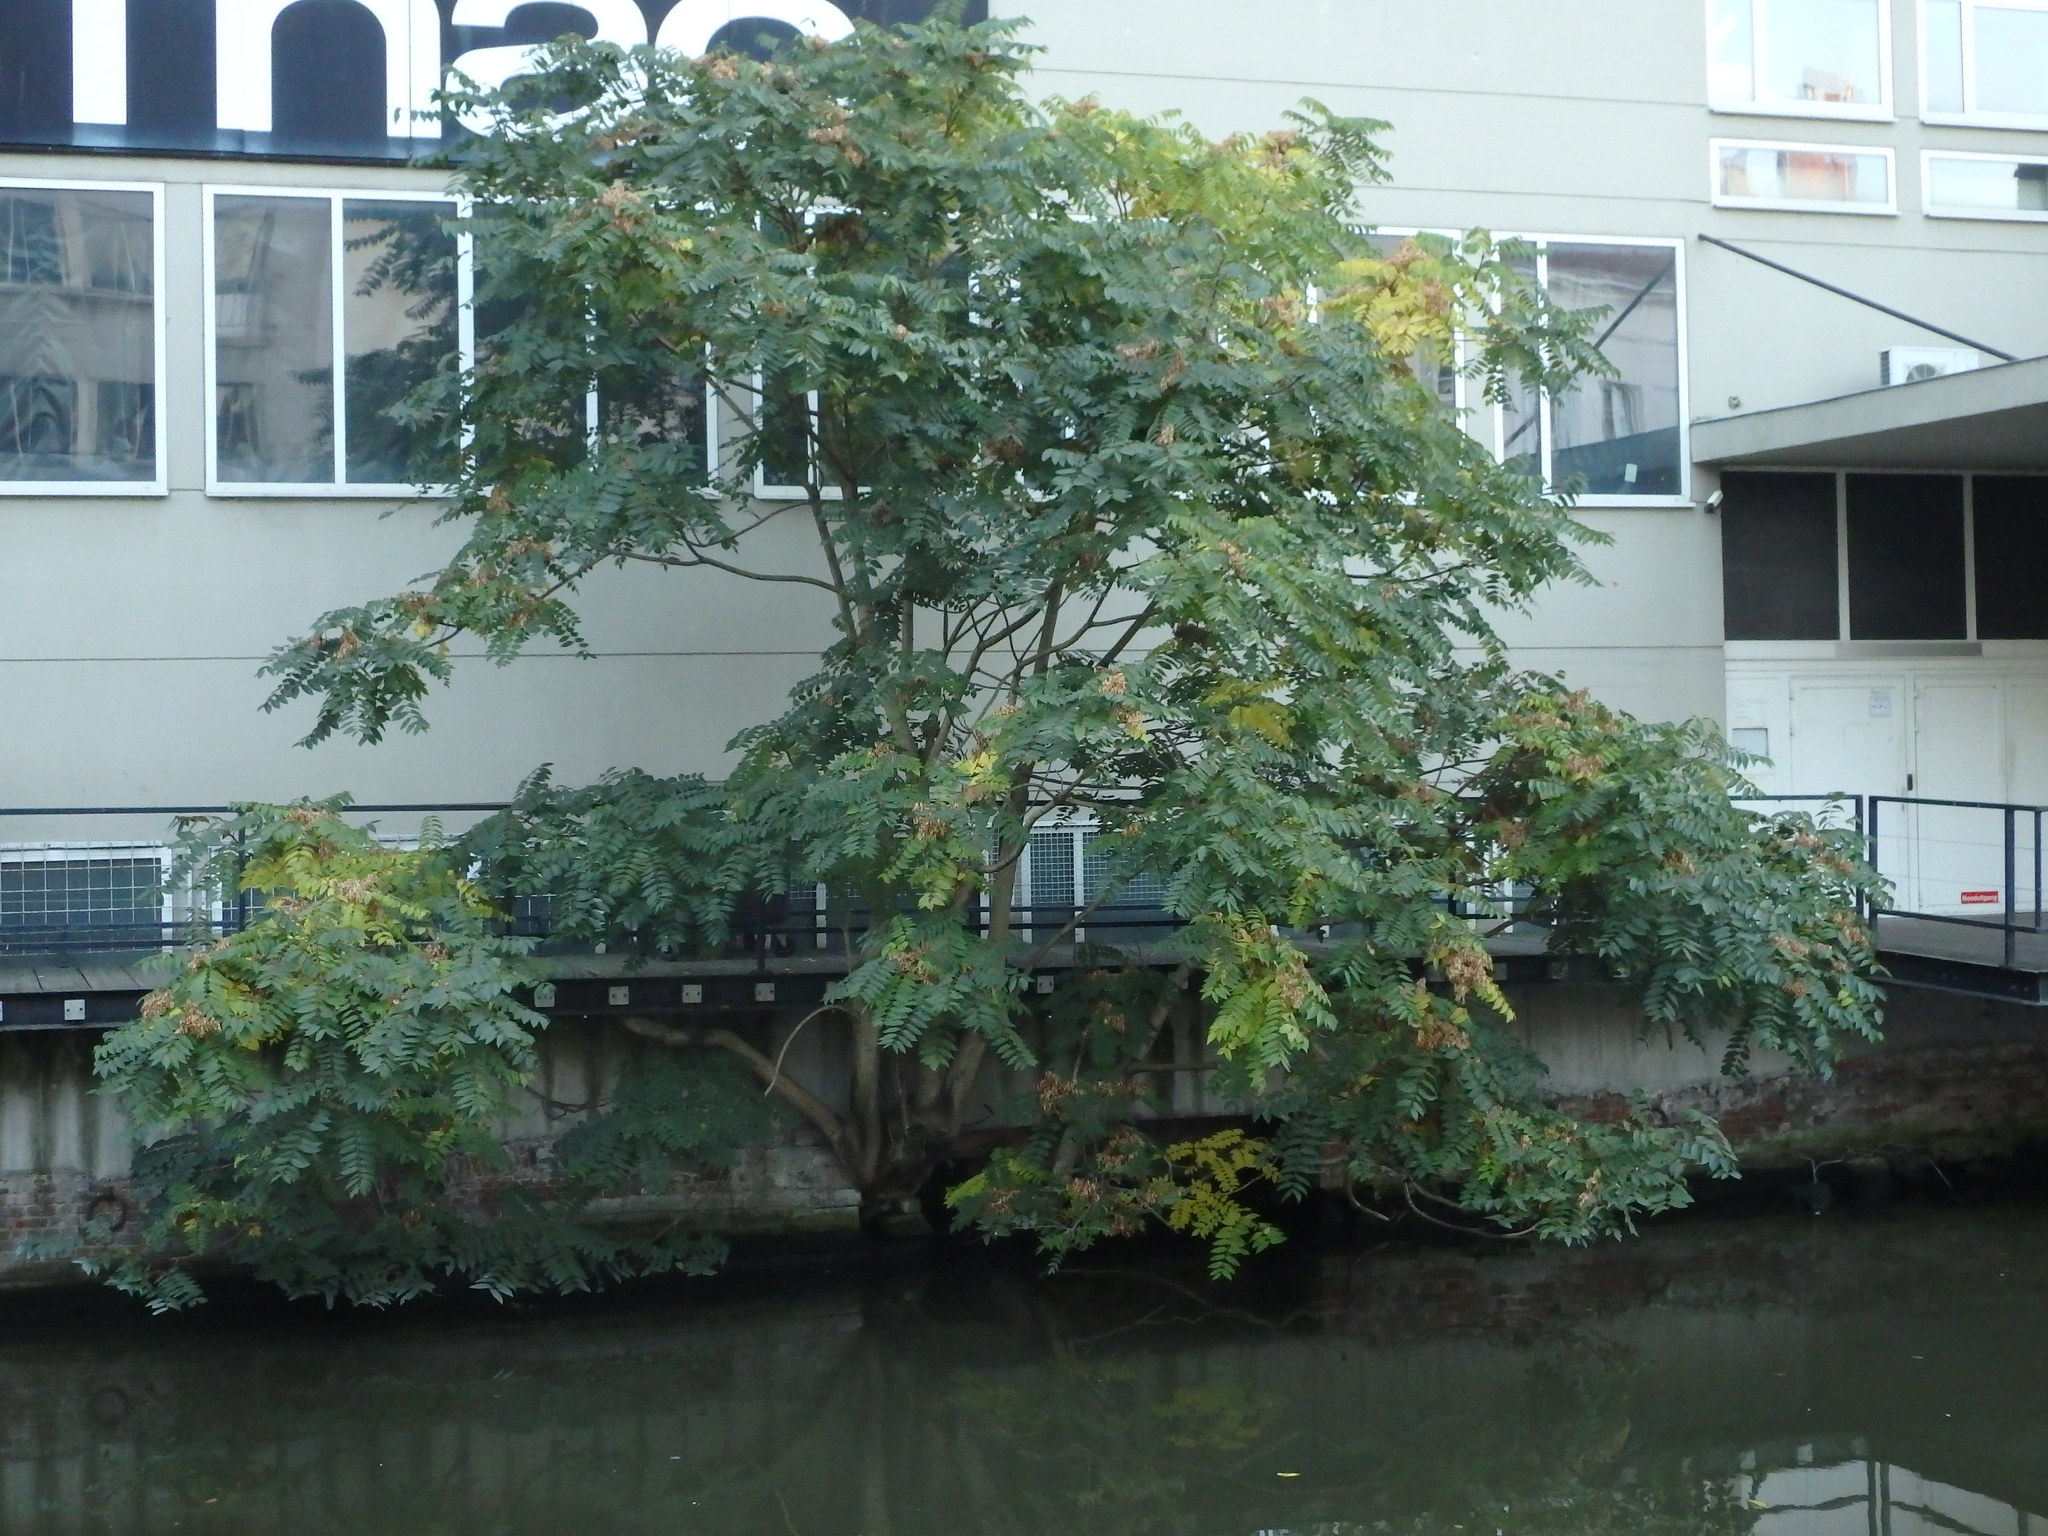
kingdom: Plantae
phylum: Tracheophyta
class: Magnoliopsida
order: Sapindales
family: Simaroubaceae
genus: Ailanthus
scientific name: Ailanthus altissima
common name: Tree-of-heaven
